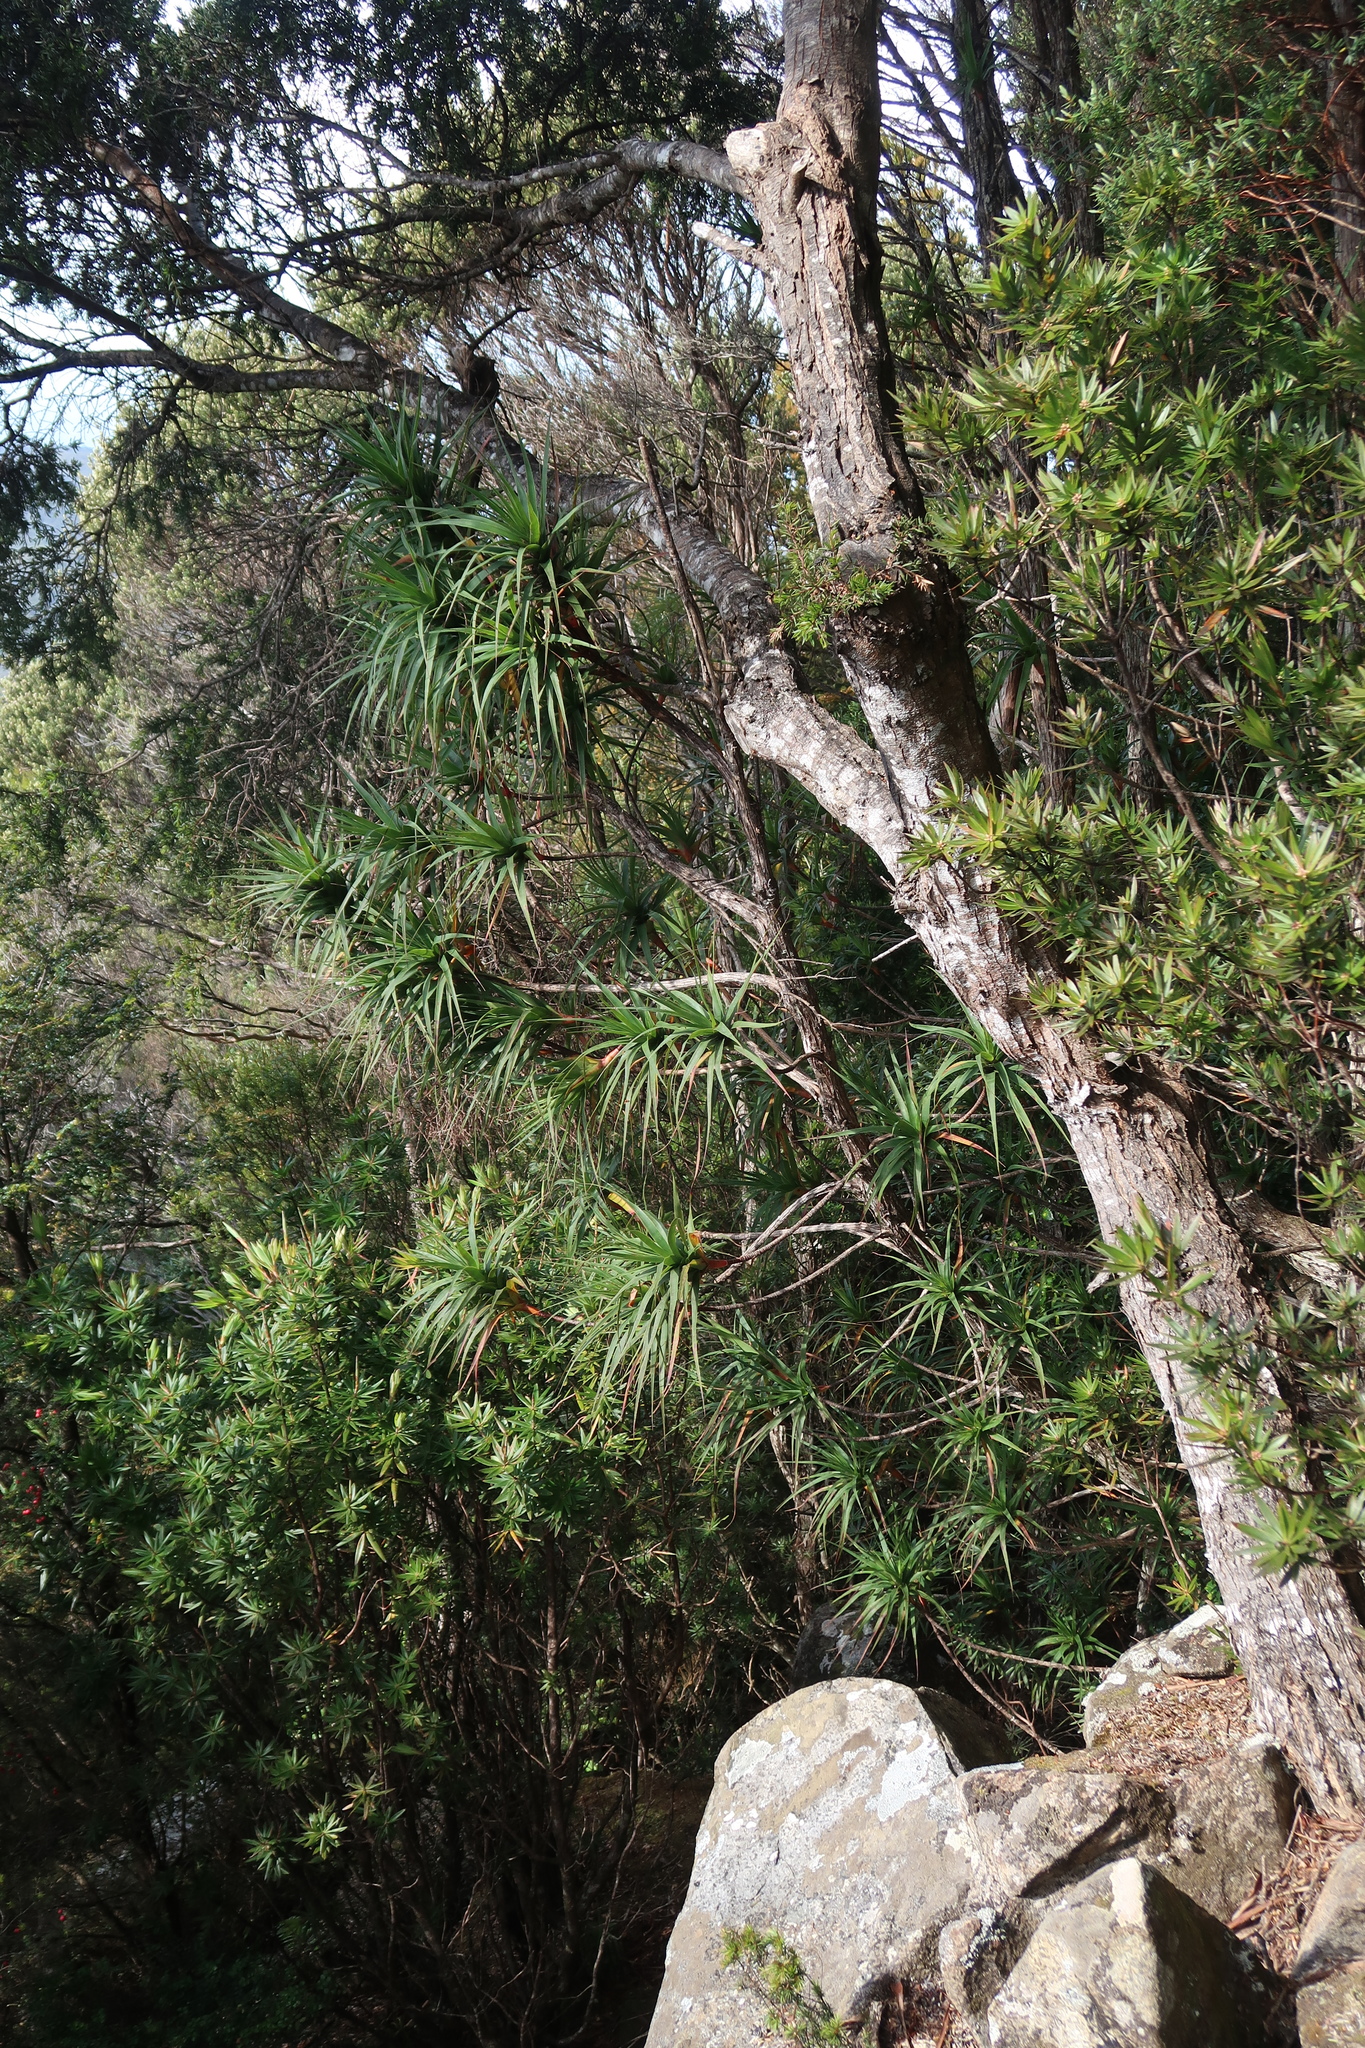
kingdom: Plantae
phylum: Tracheophyta
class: Magnoliopsida
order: Ericales
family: Ericaceae
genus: Dracophyllum
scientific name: Dracophyllum desgrazii
